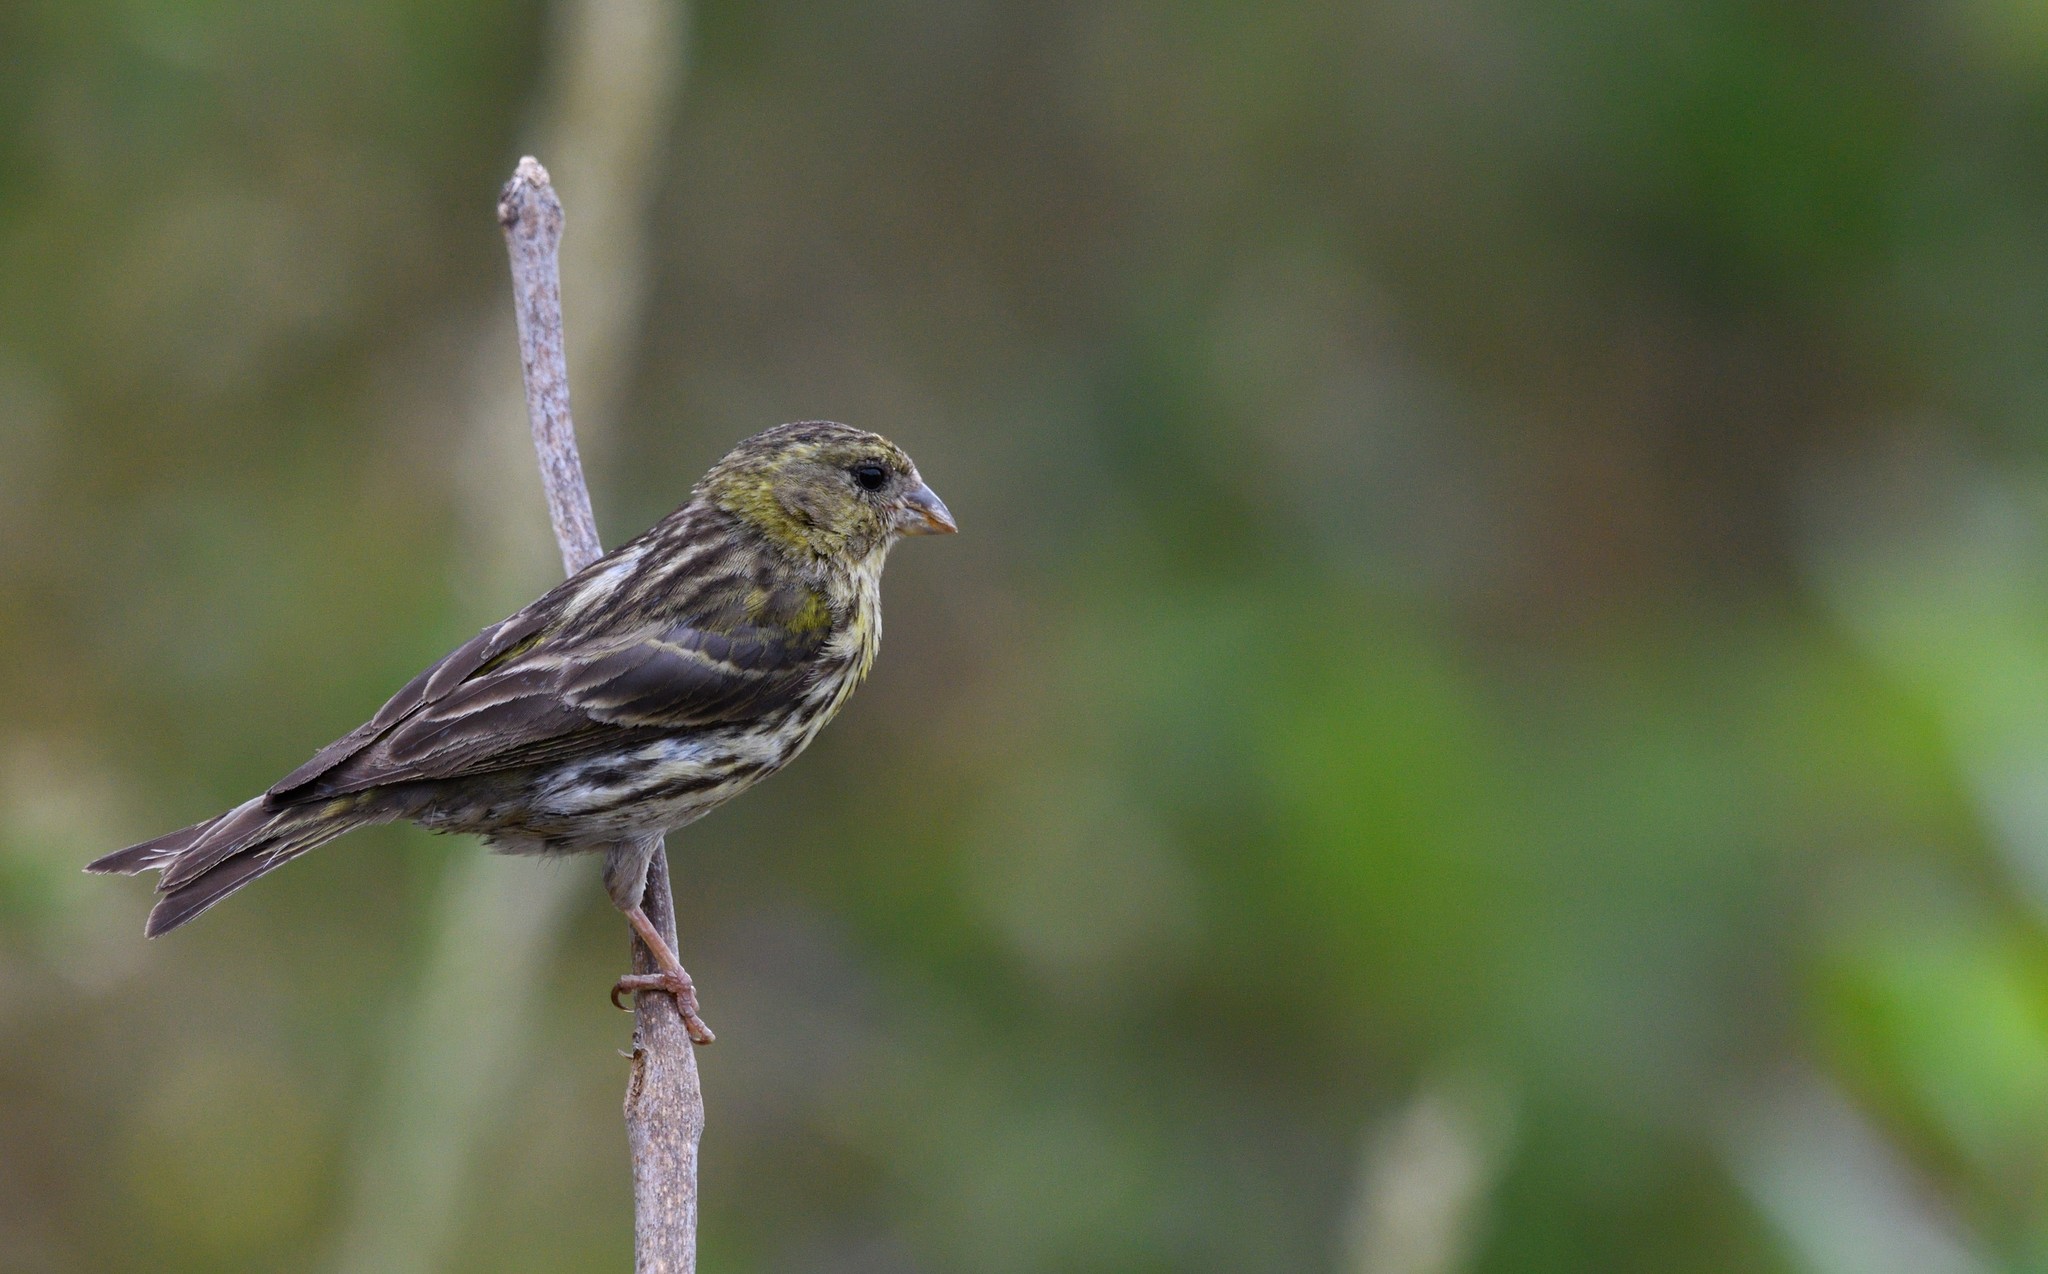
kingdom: Animalia
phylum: Chordata
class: Aves
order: Passeriformes
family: Fringillidae
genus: Serinus
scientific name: Serinus serinus
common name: European serin
